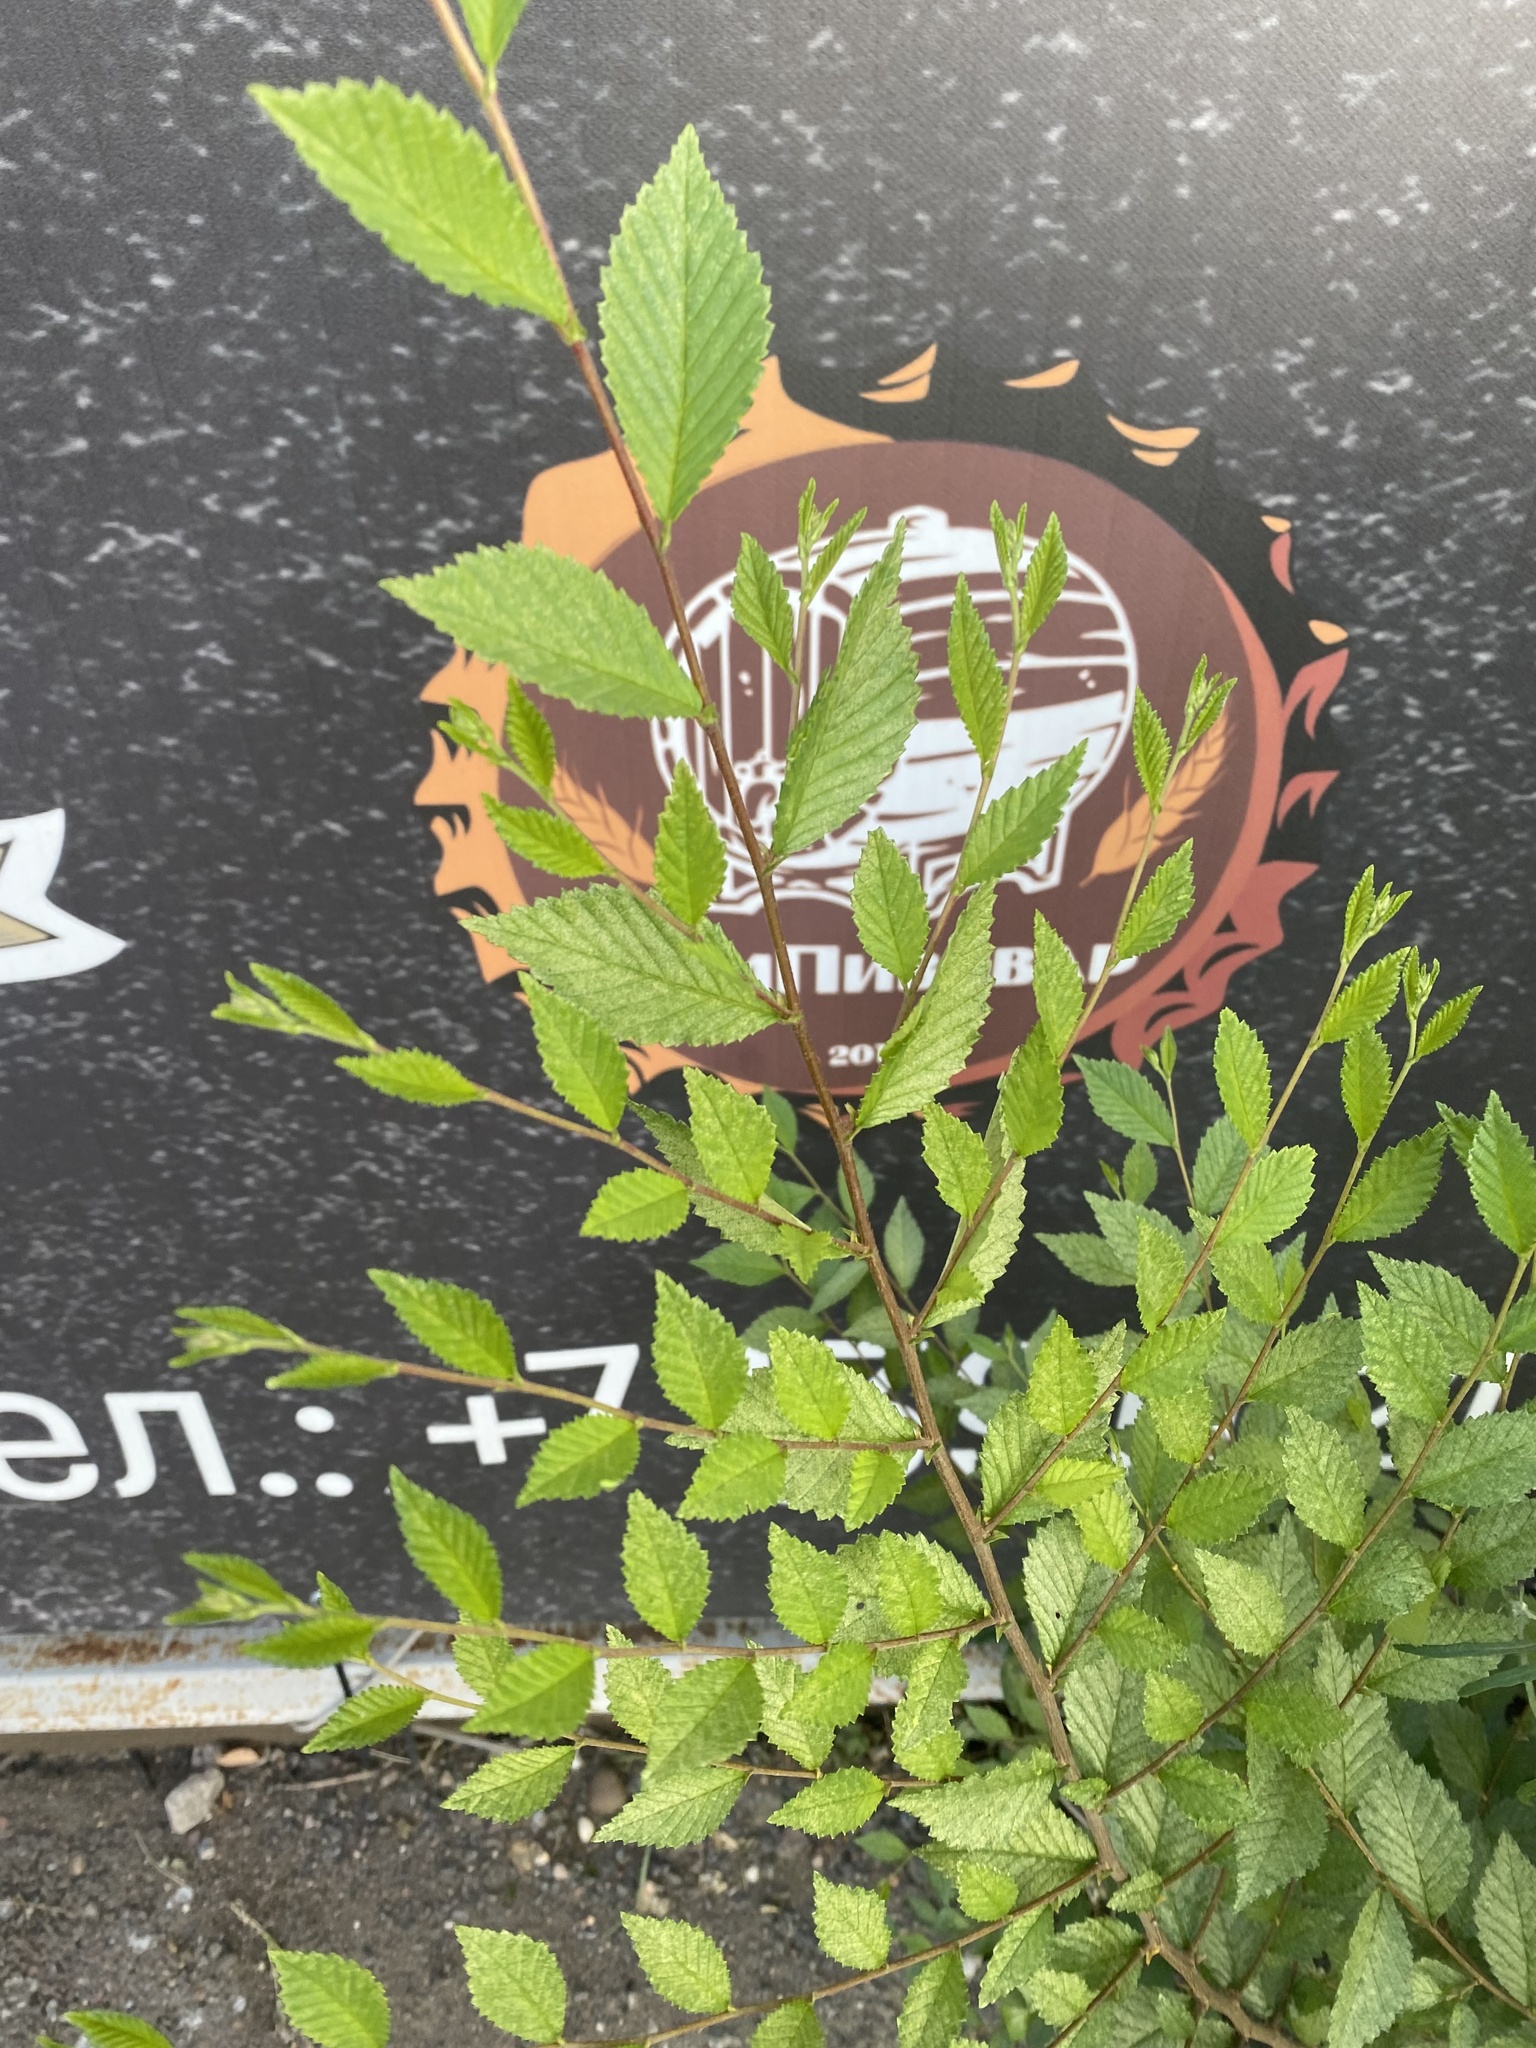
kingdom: Plantae
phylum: Tracheophyta
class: Magnoliopsida
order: Rosales
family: Ulmaceae
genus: Ulmus
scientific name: Ulmus pumila
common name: Siberian elm
